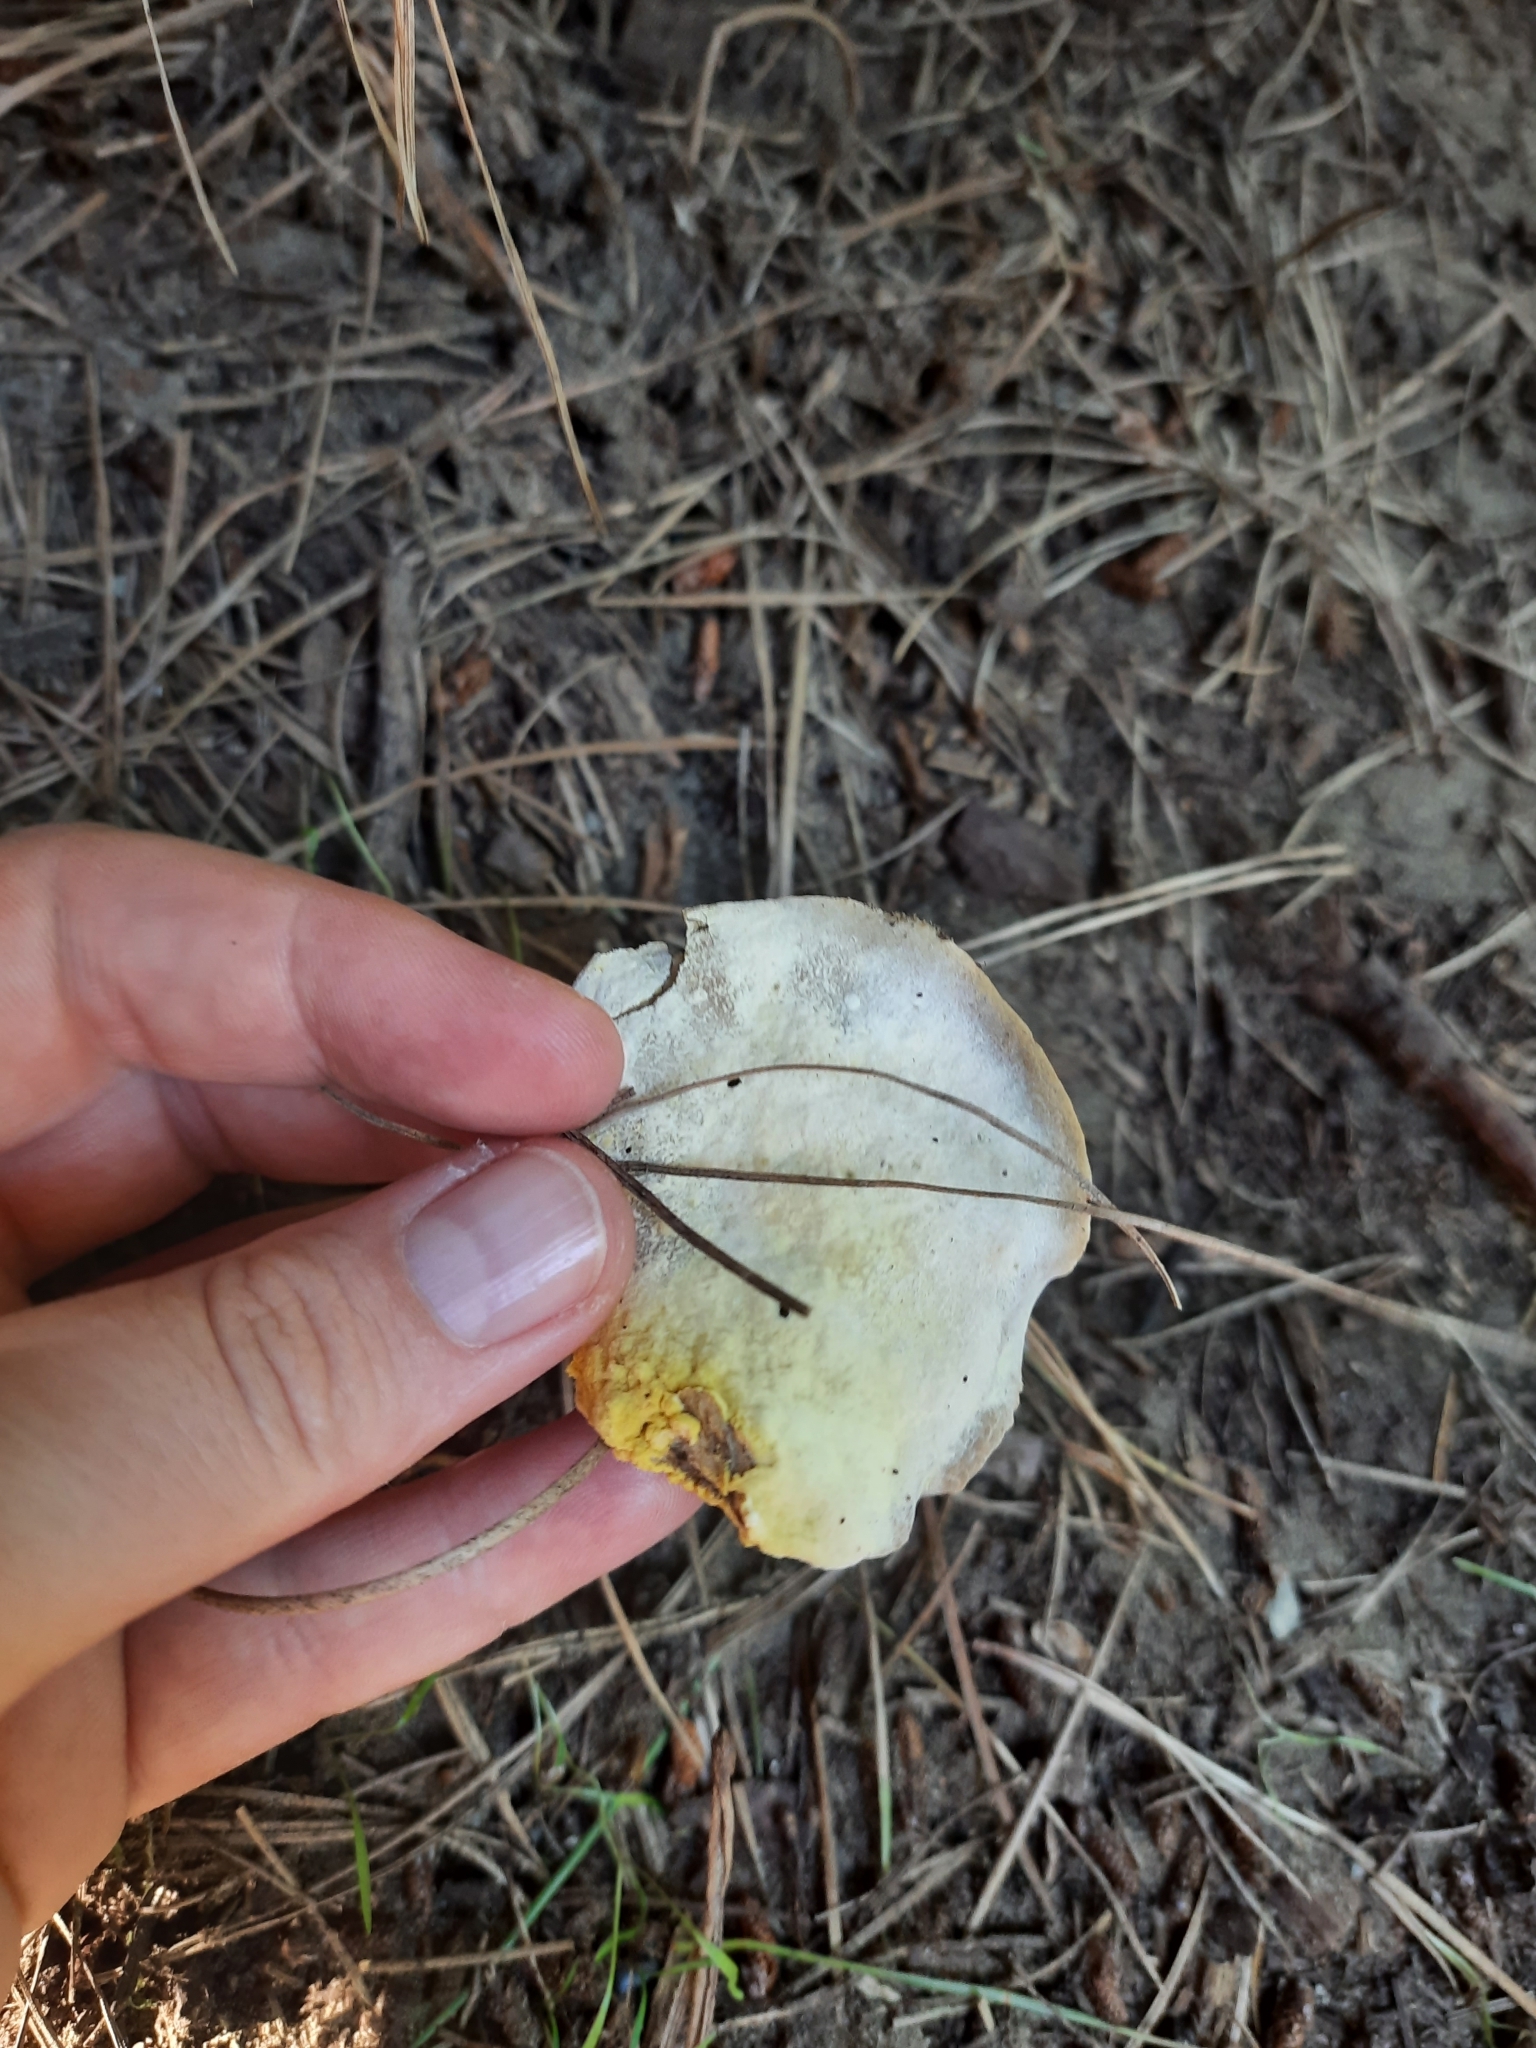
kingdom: Fungi
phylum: Ascomycota
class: Sordariomycetes
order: Hypocreales
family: Hypocreaceae
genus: Hypomyces
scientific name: Hypomyces chrysospermus
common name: Bolete mould
